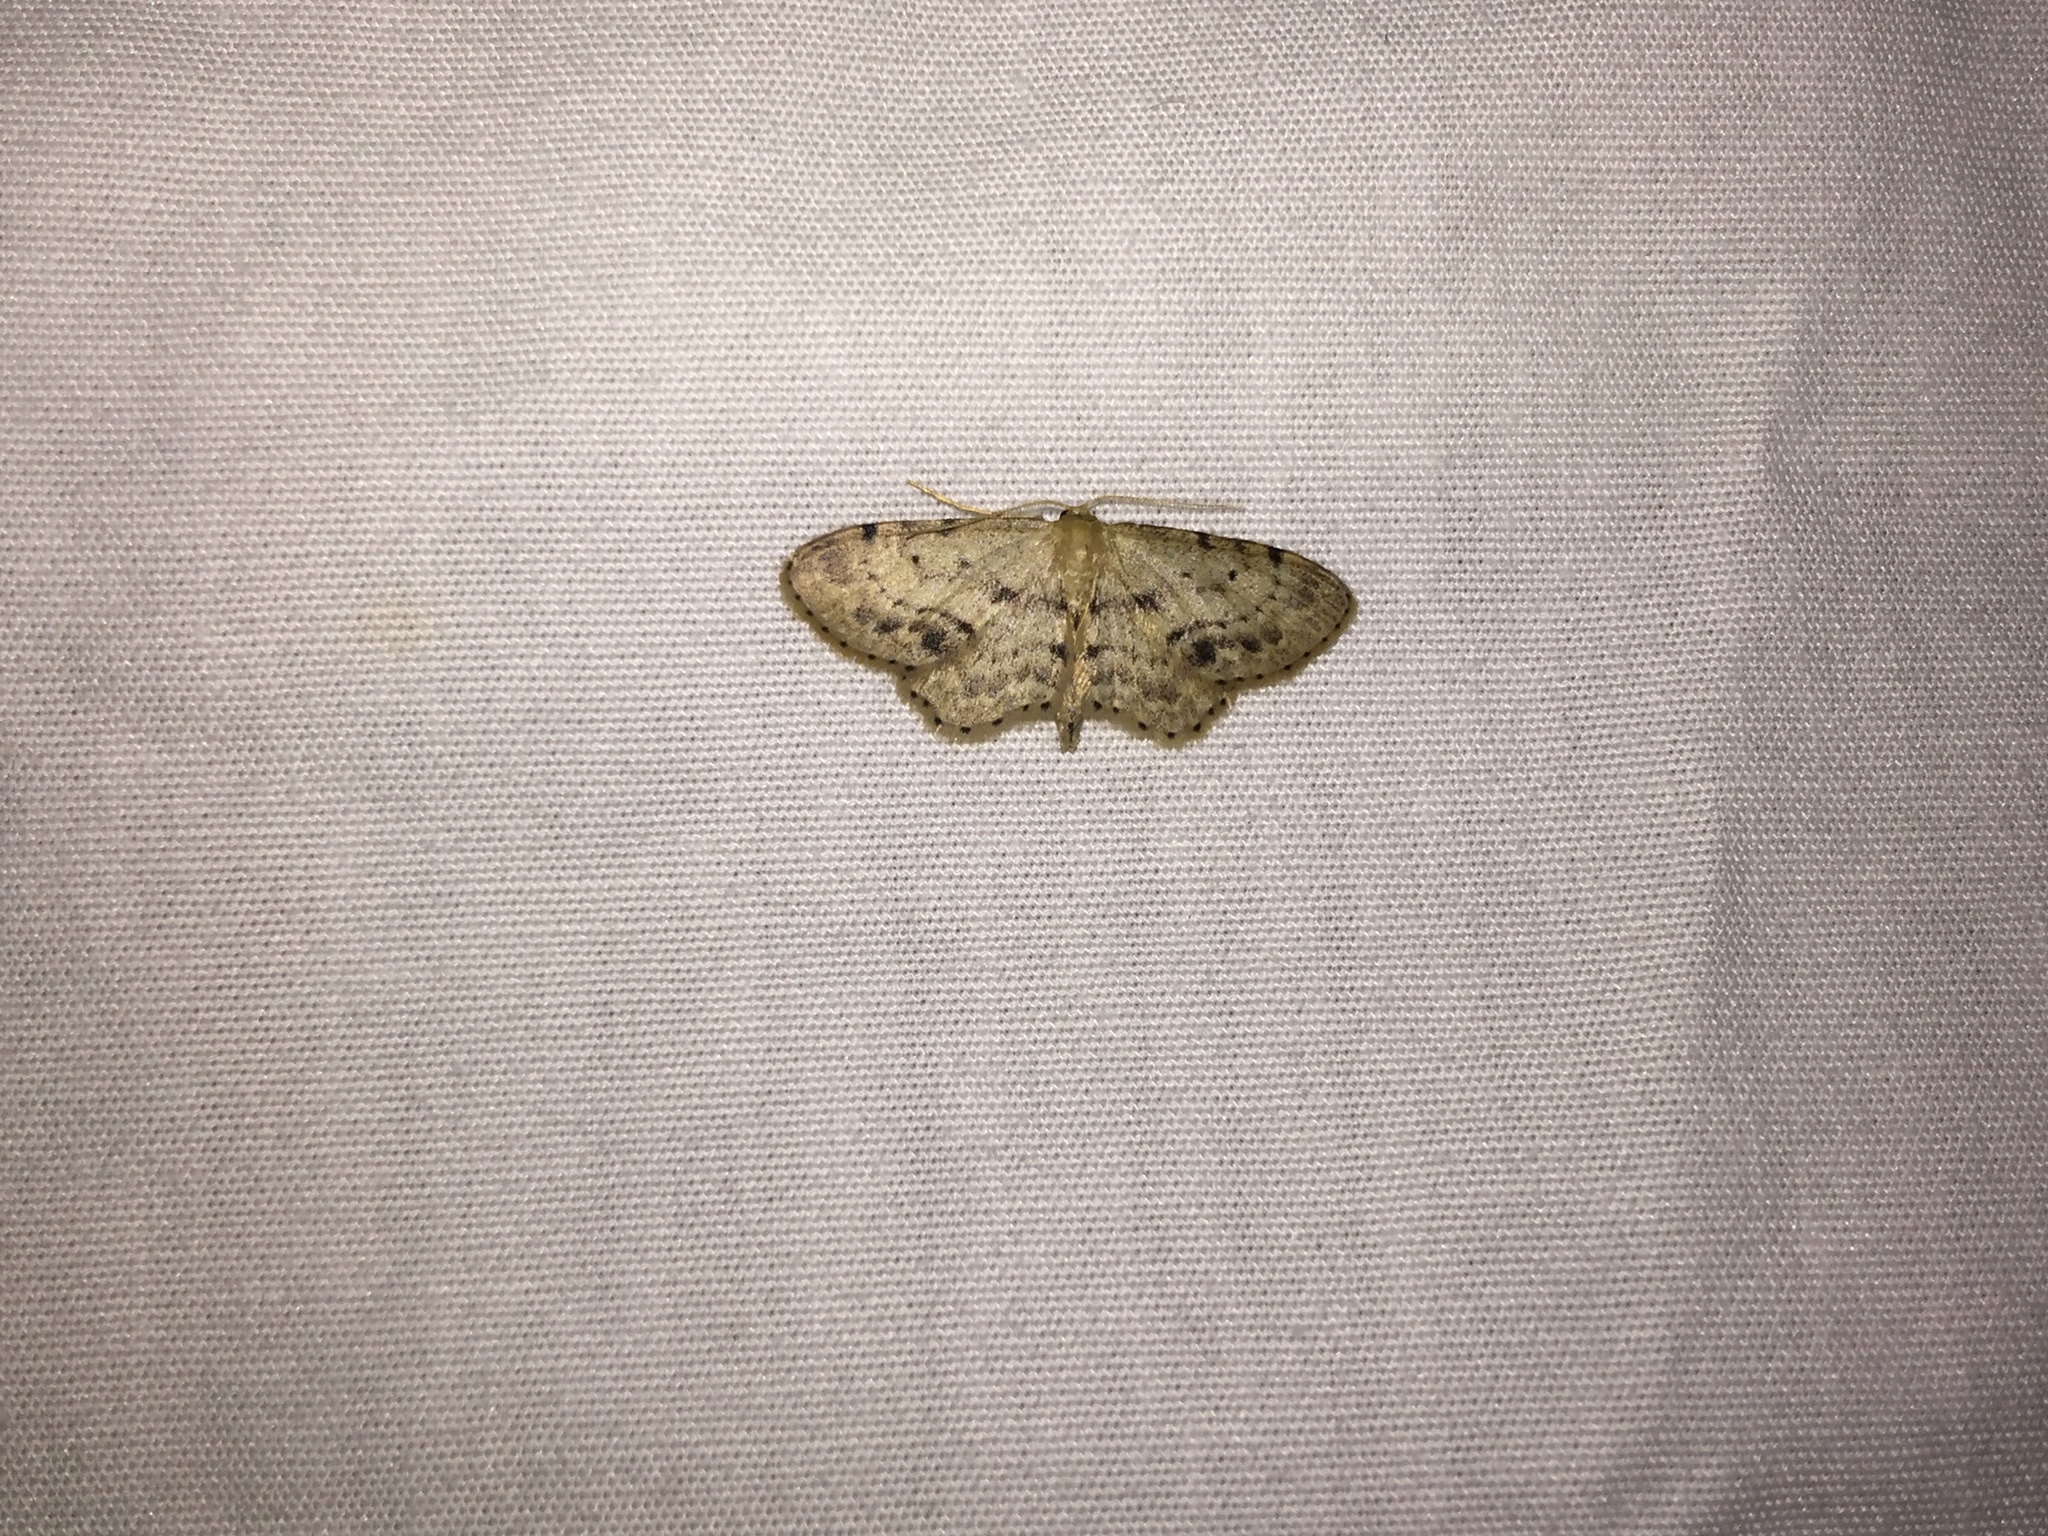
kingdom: Animalia
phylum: Arthropoda
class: Insecta
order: Lepidoptera
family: Geometridae
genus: Idaea
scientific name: Idaea dimidiata
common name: Single-dotted wave
